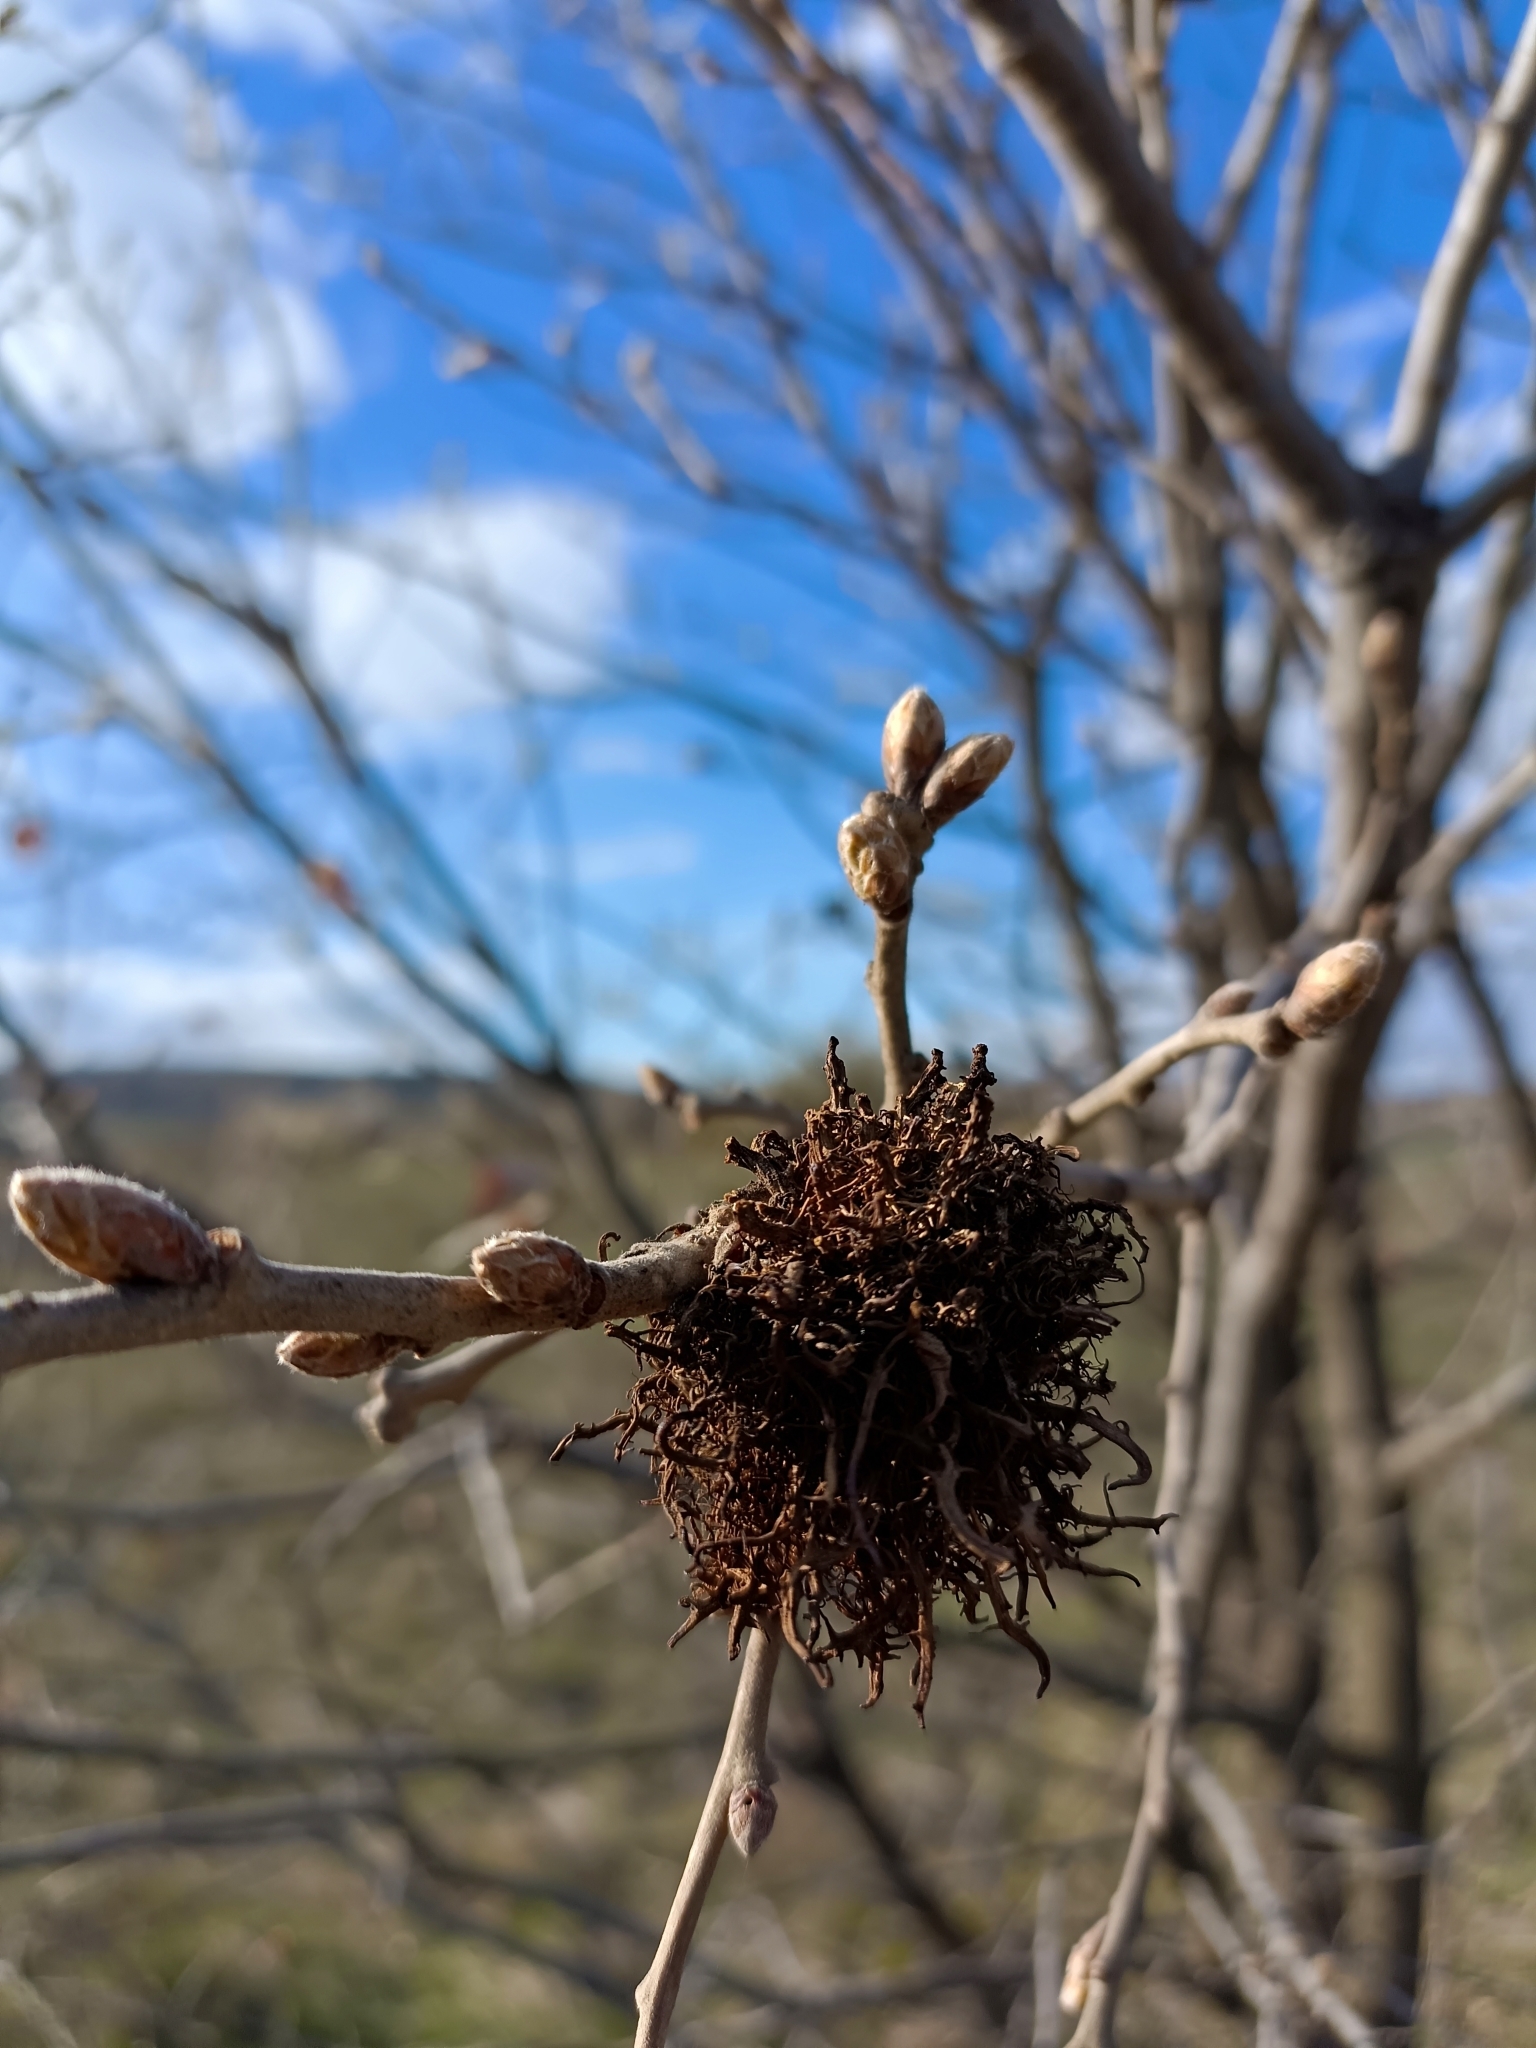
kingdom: Animalia
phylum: Arthropoda
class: Insecta
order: Hymenoptera
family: Cynipidae
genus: Andricus
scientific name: Andricus caputmedusae
